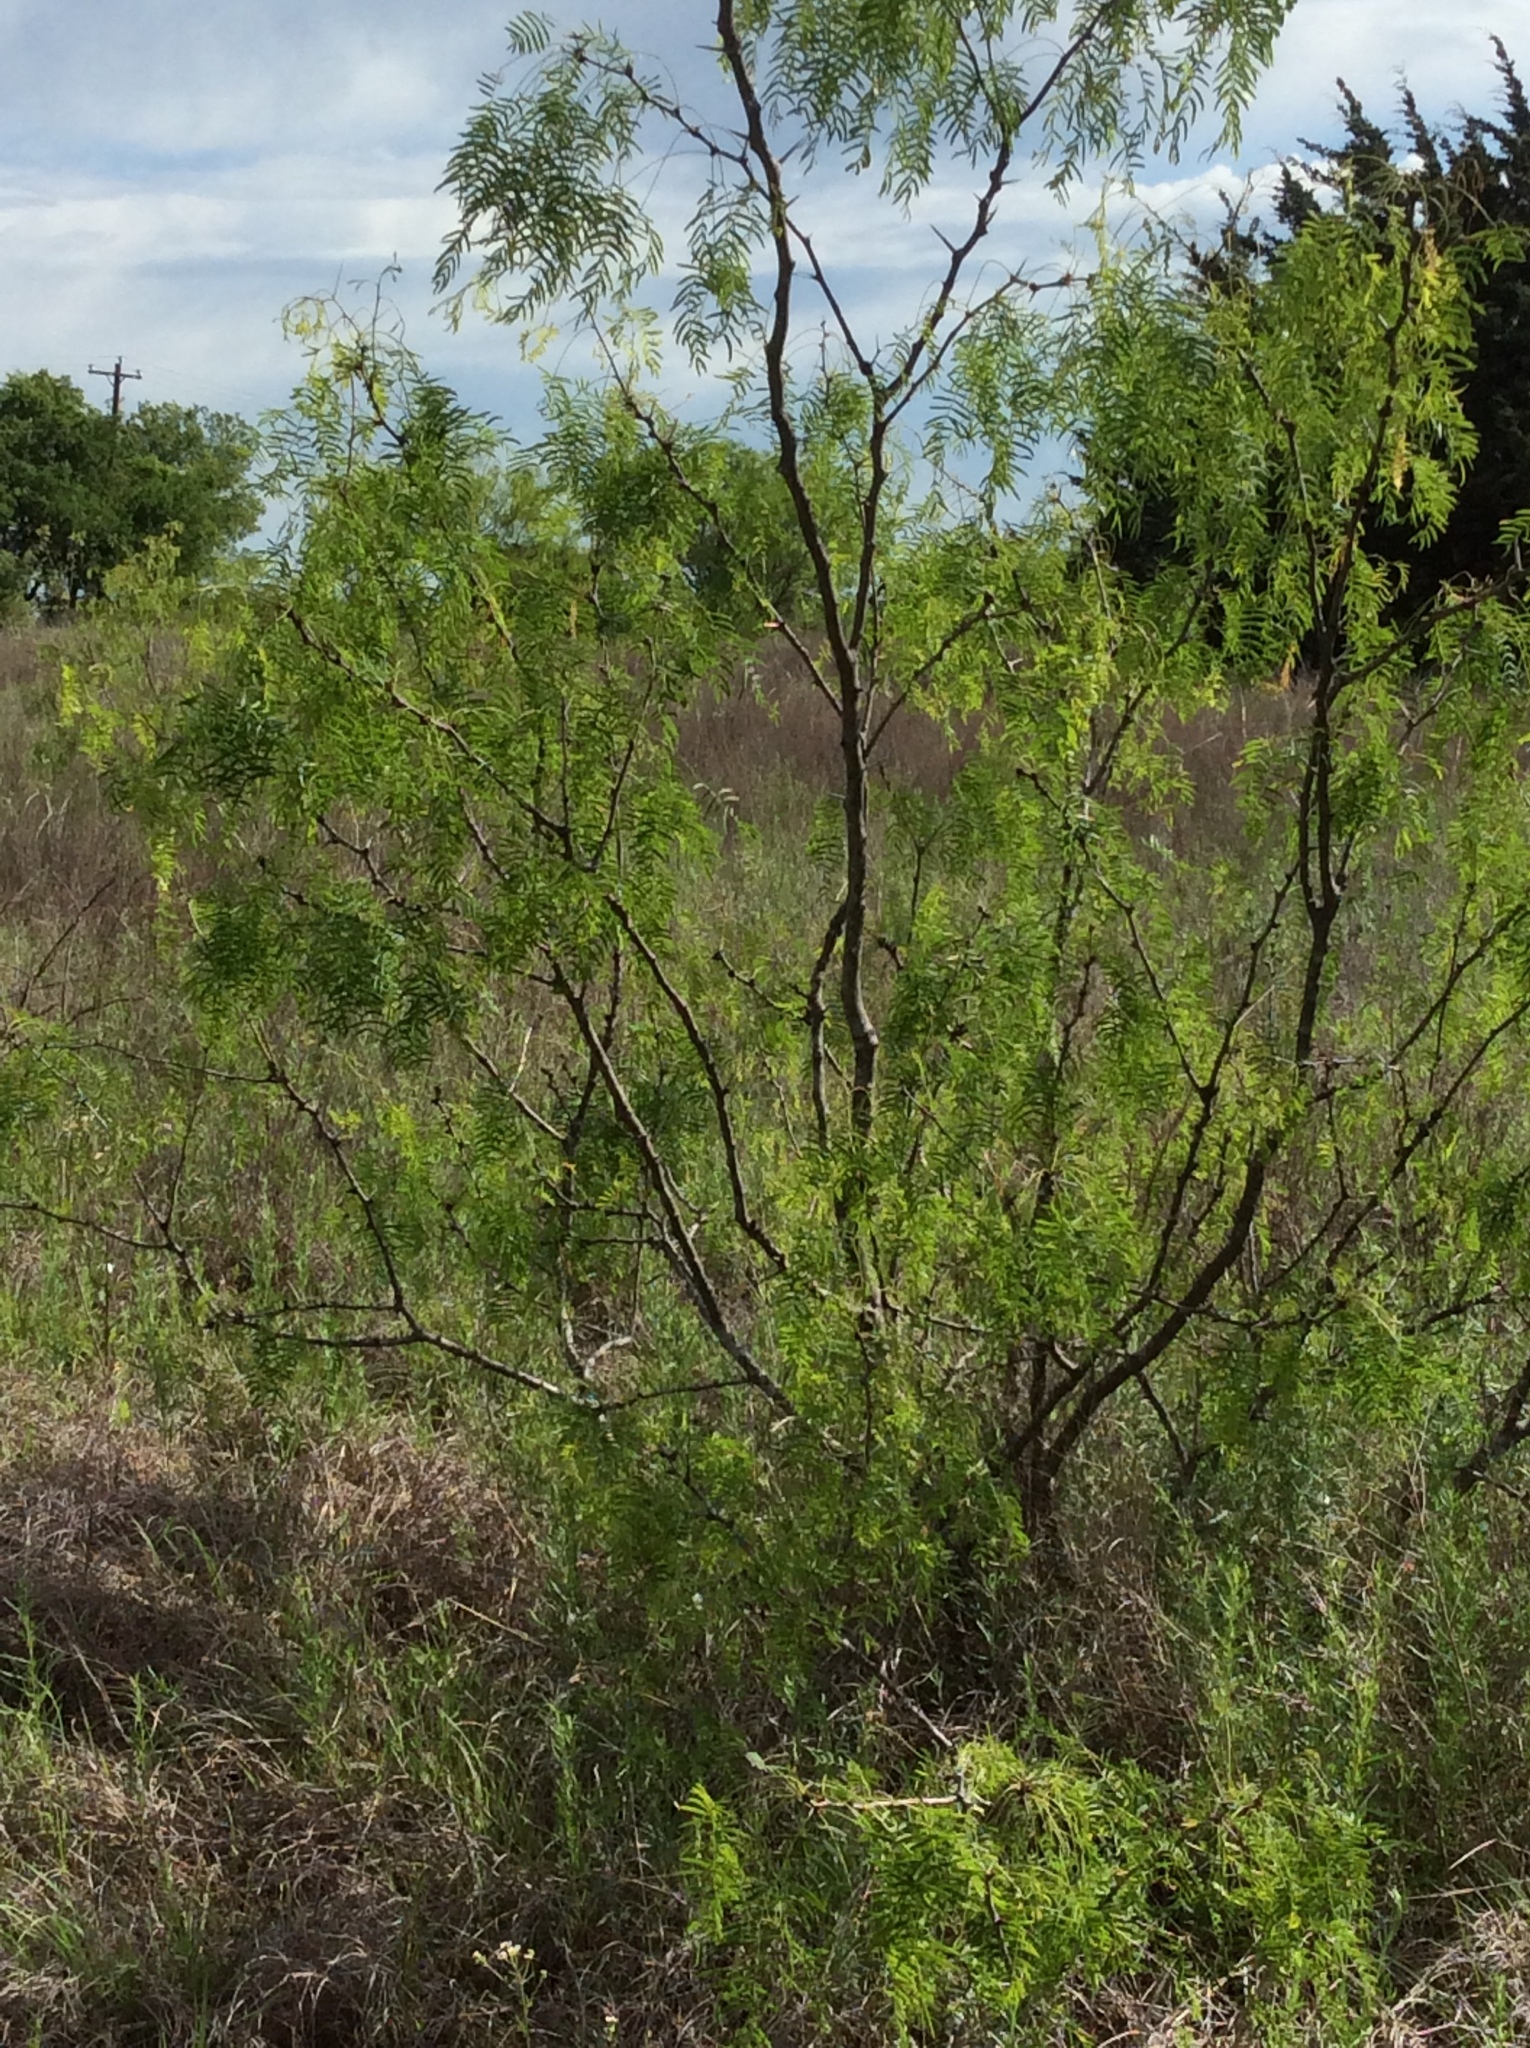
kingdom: Plantae
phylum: Tracheophyta
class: Magnoliopsida
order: Fabales
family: Fabaceae
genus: Prosopis
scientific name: Prosopis glandulosa
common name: Honey mesquite
